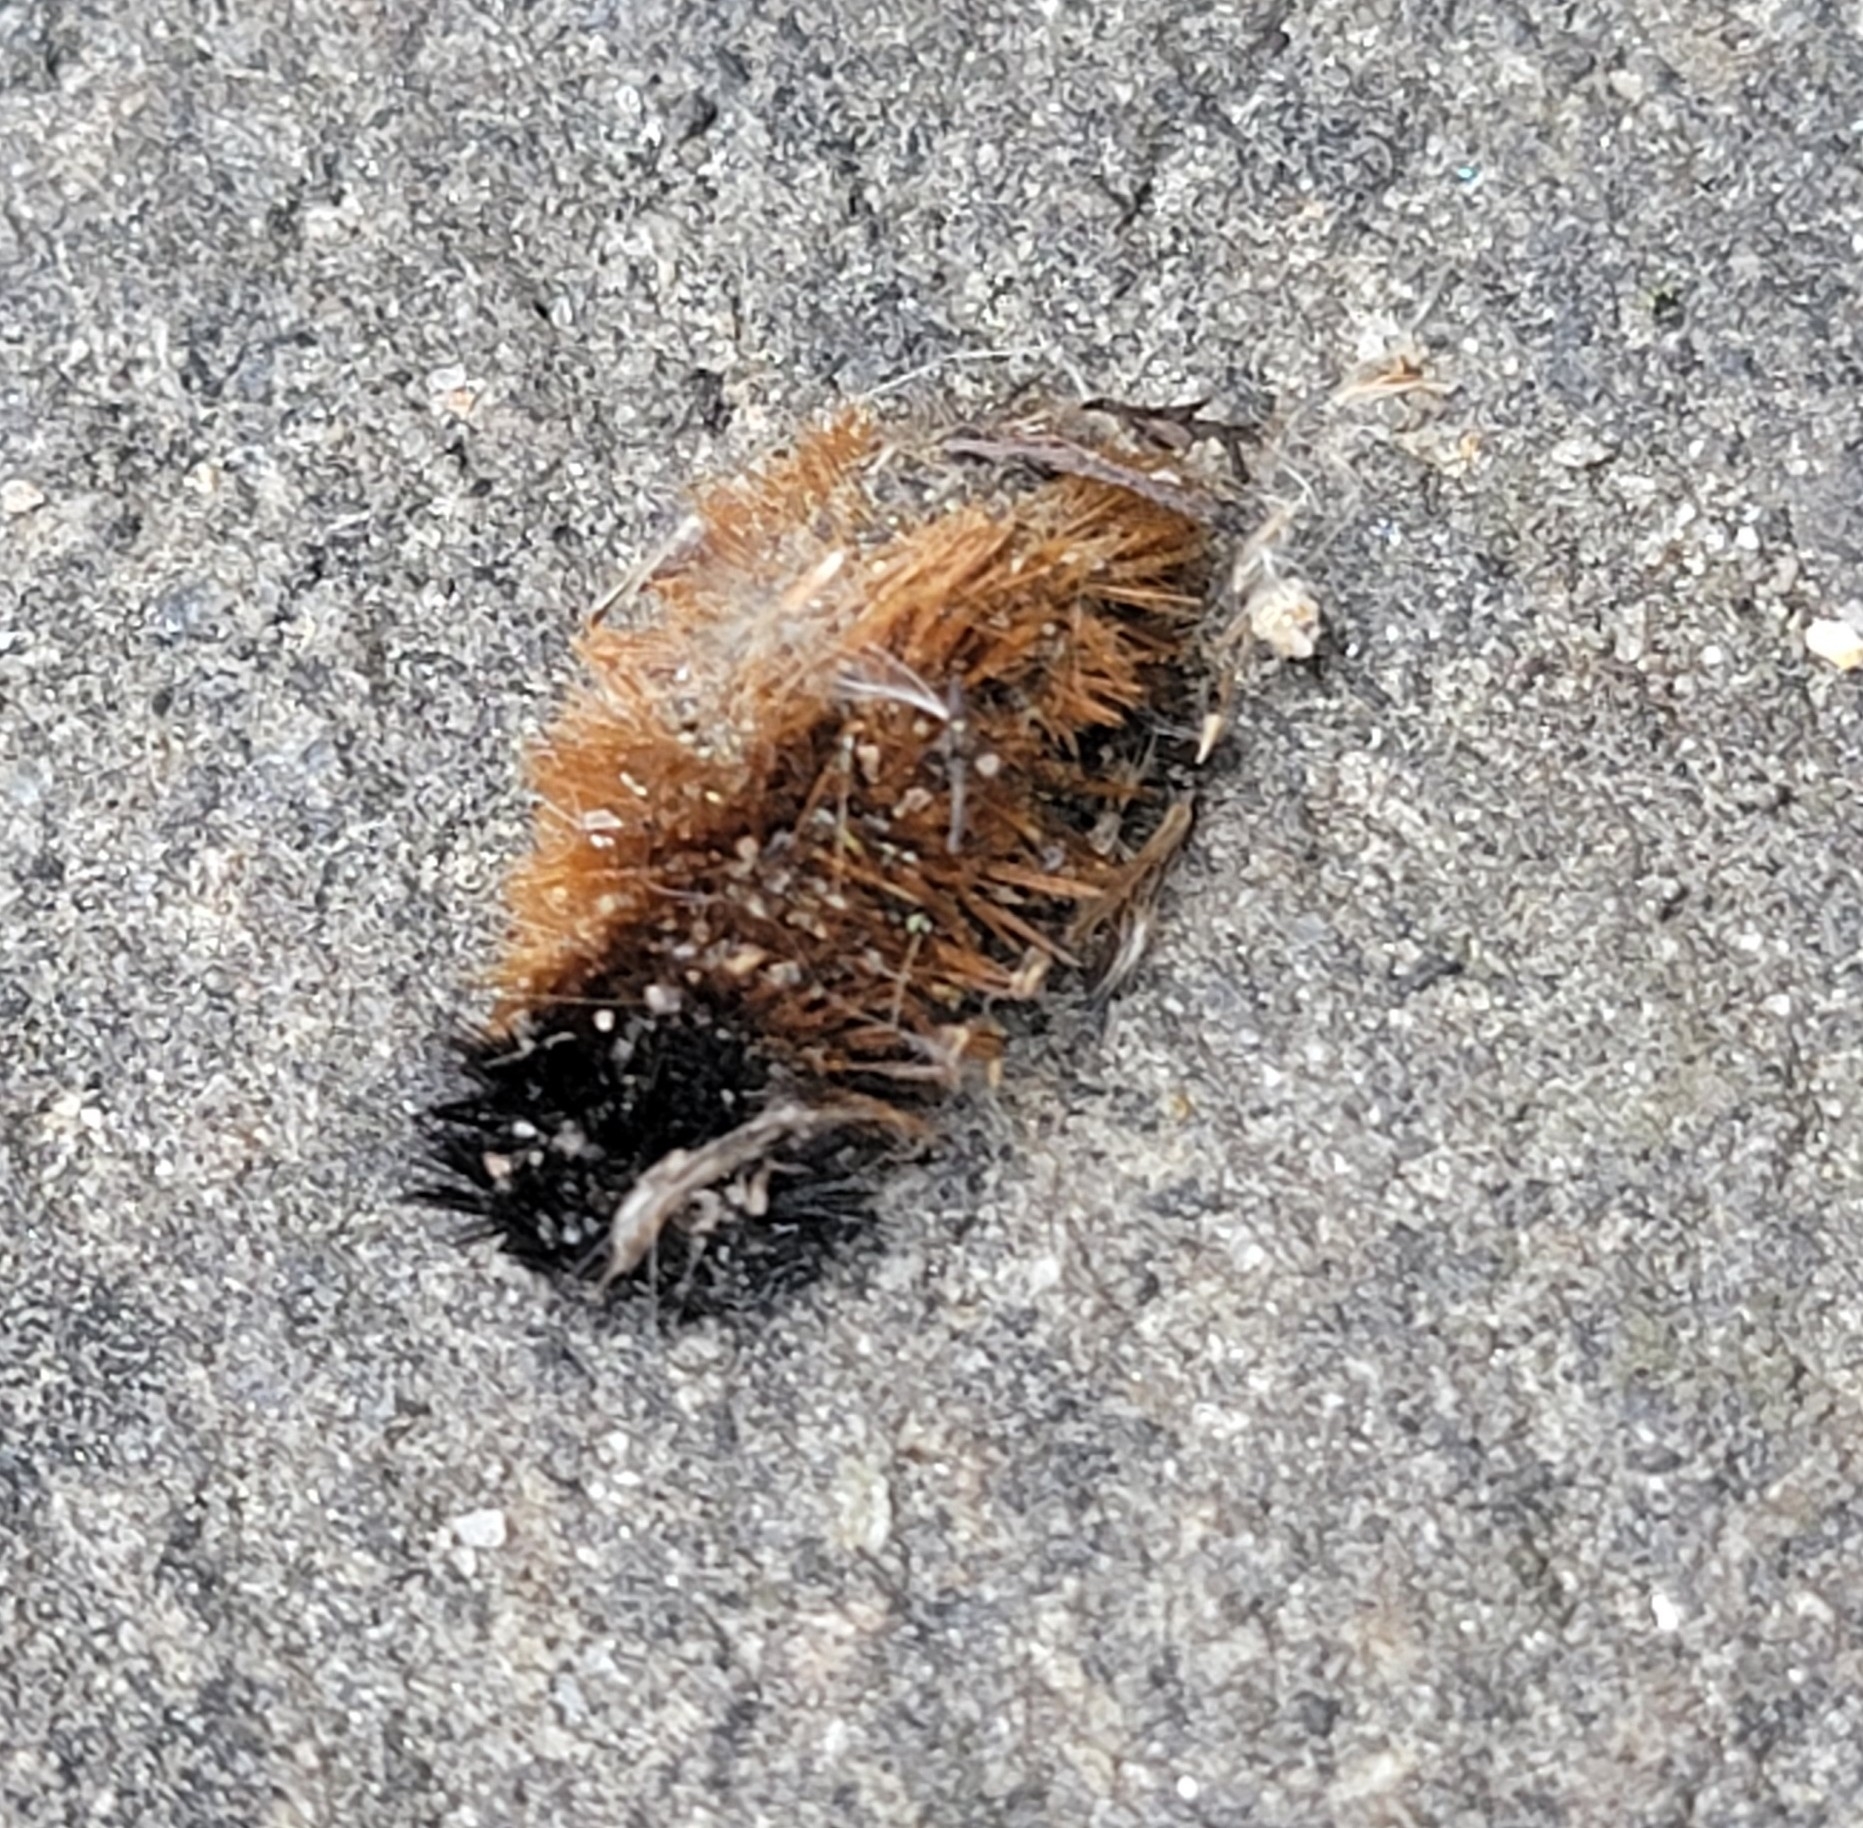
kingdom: Animalia
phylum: Arthropoda
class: Insecta
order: Lepidoptera
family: Erebidae
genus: Pyrrharctia
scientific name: Pyrrharctia isabella
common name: Isabella tiger moth
